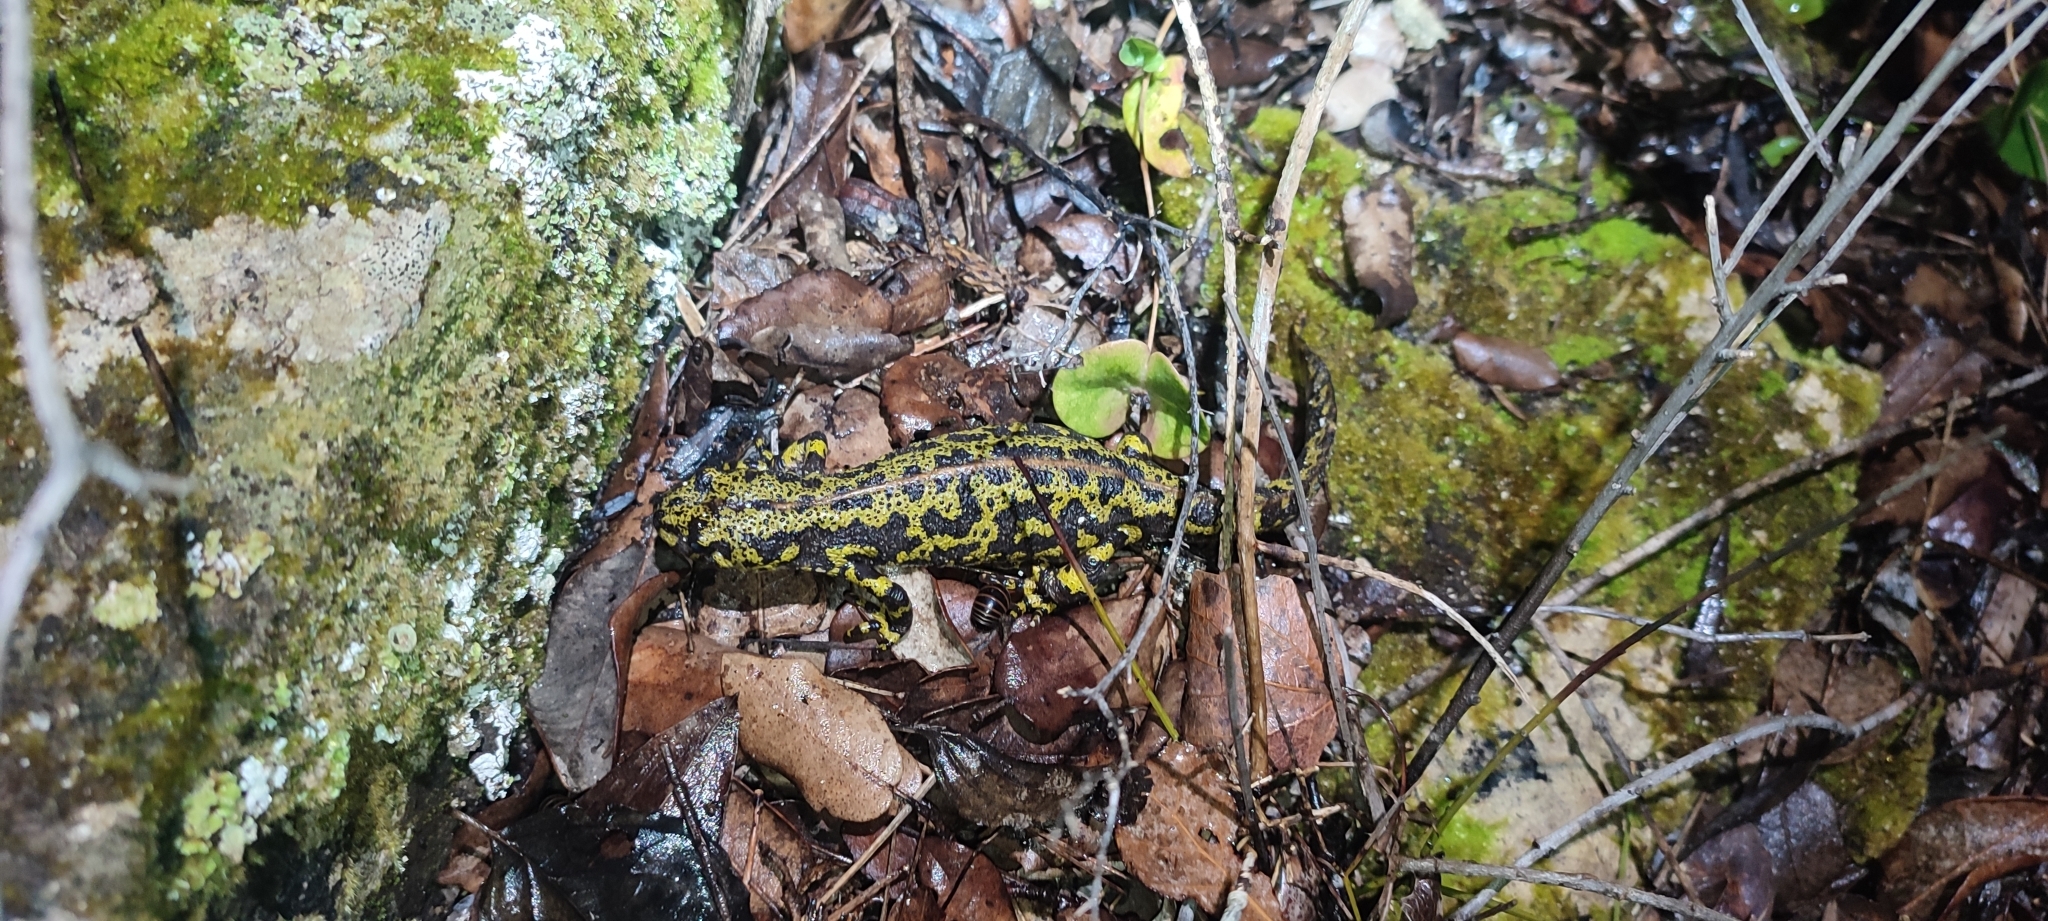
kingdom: Animalia
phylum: Chordata
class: Amphibia
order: Caudata
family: Salamandridae
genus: Triturus
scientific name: Triturus marmoratus
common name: Marbled newt
